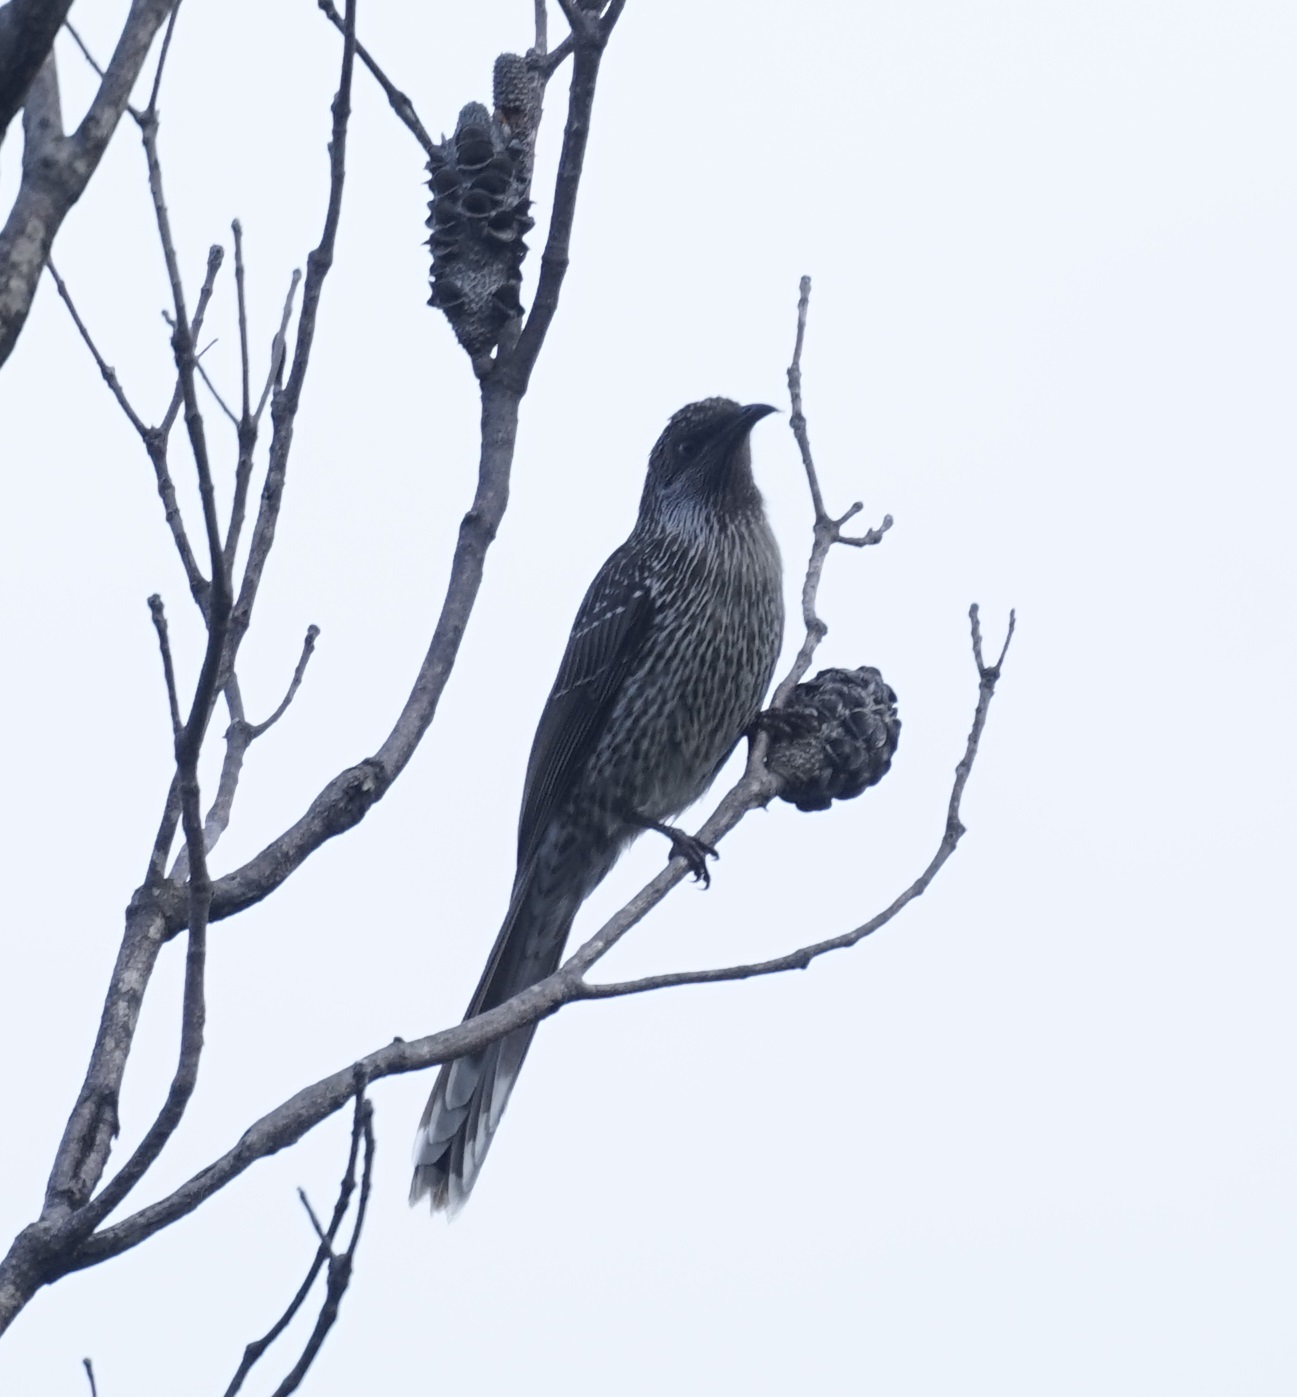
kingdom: Animalia
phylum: Chordata
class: Aves
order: Passeriformes
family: Meliphagidae
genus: Anthochaera
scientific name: Anthochaera chrysoptera
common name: Little wattlebird
